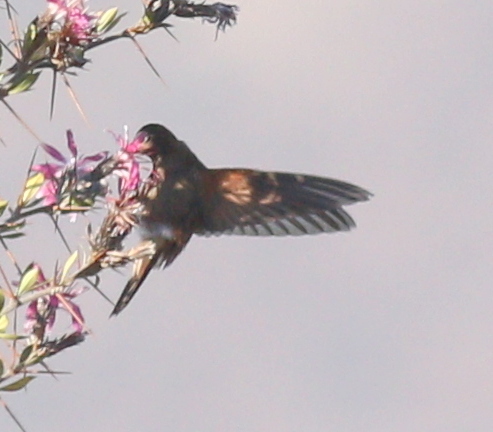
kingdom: Animalia
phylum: Chordata
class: Aves
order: Apodiformes
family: Trochilidae
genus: Aglaeactis
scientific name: Aglaeactis cupripennis
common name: Shining sunbeam
